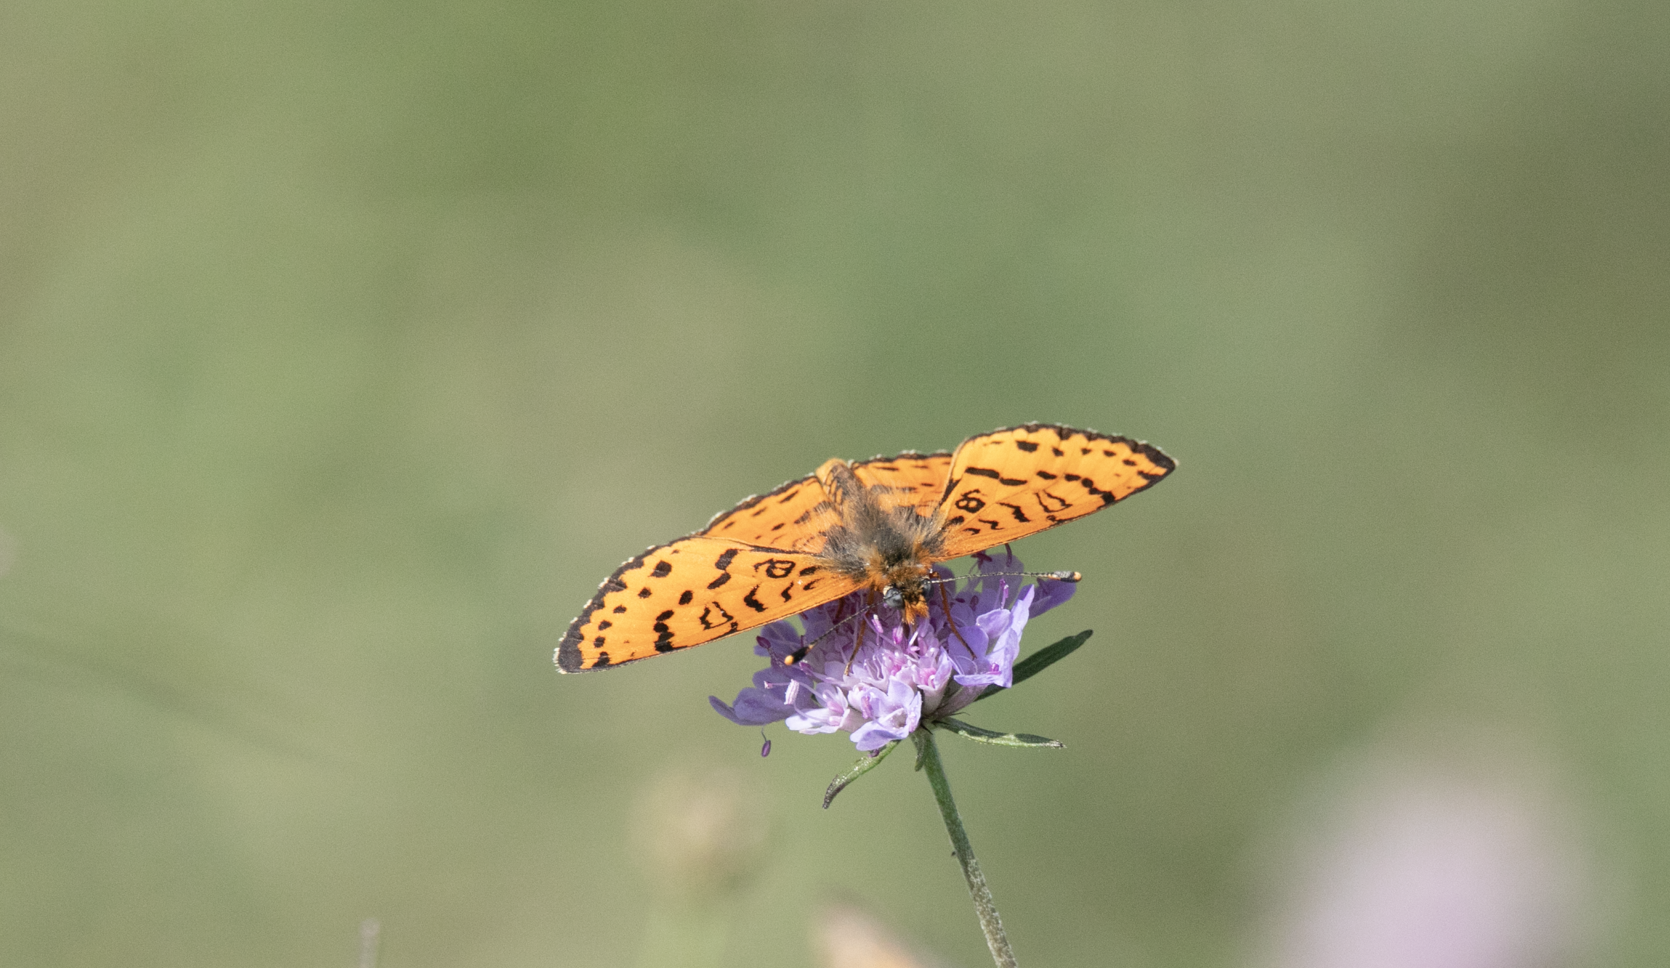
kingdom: Animalia
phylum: Arthropoda
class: Insecta
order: Lepidoptera
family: Nymphalidae
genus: Melitaea
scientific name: Melitaea didyma
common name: Spotted fritillary
